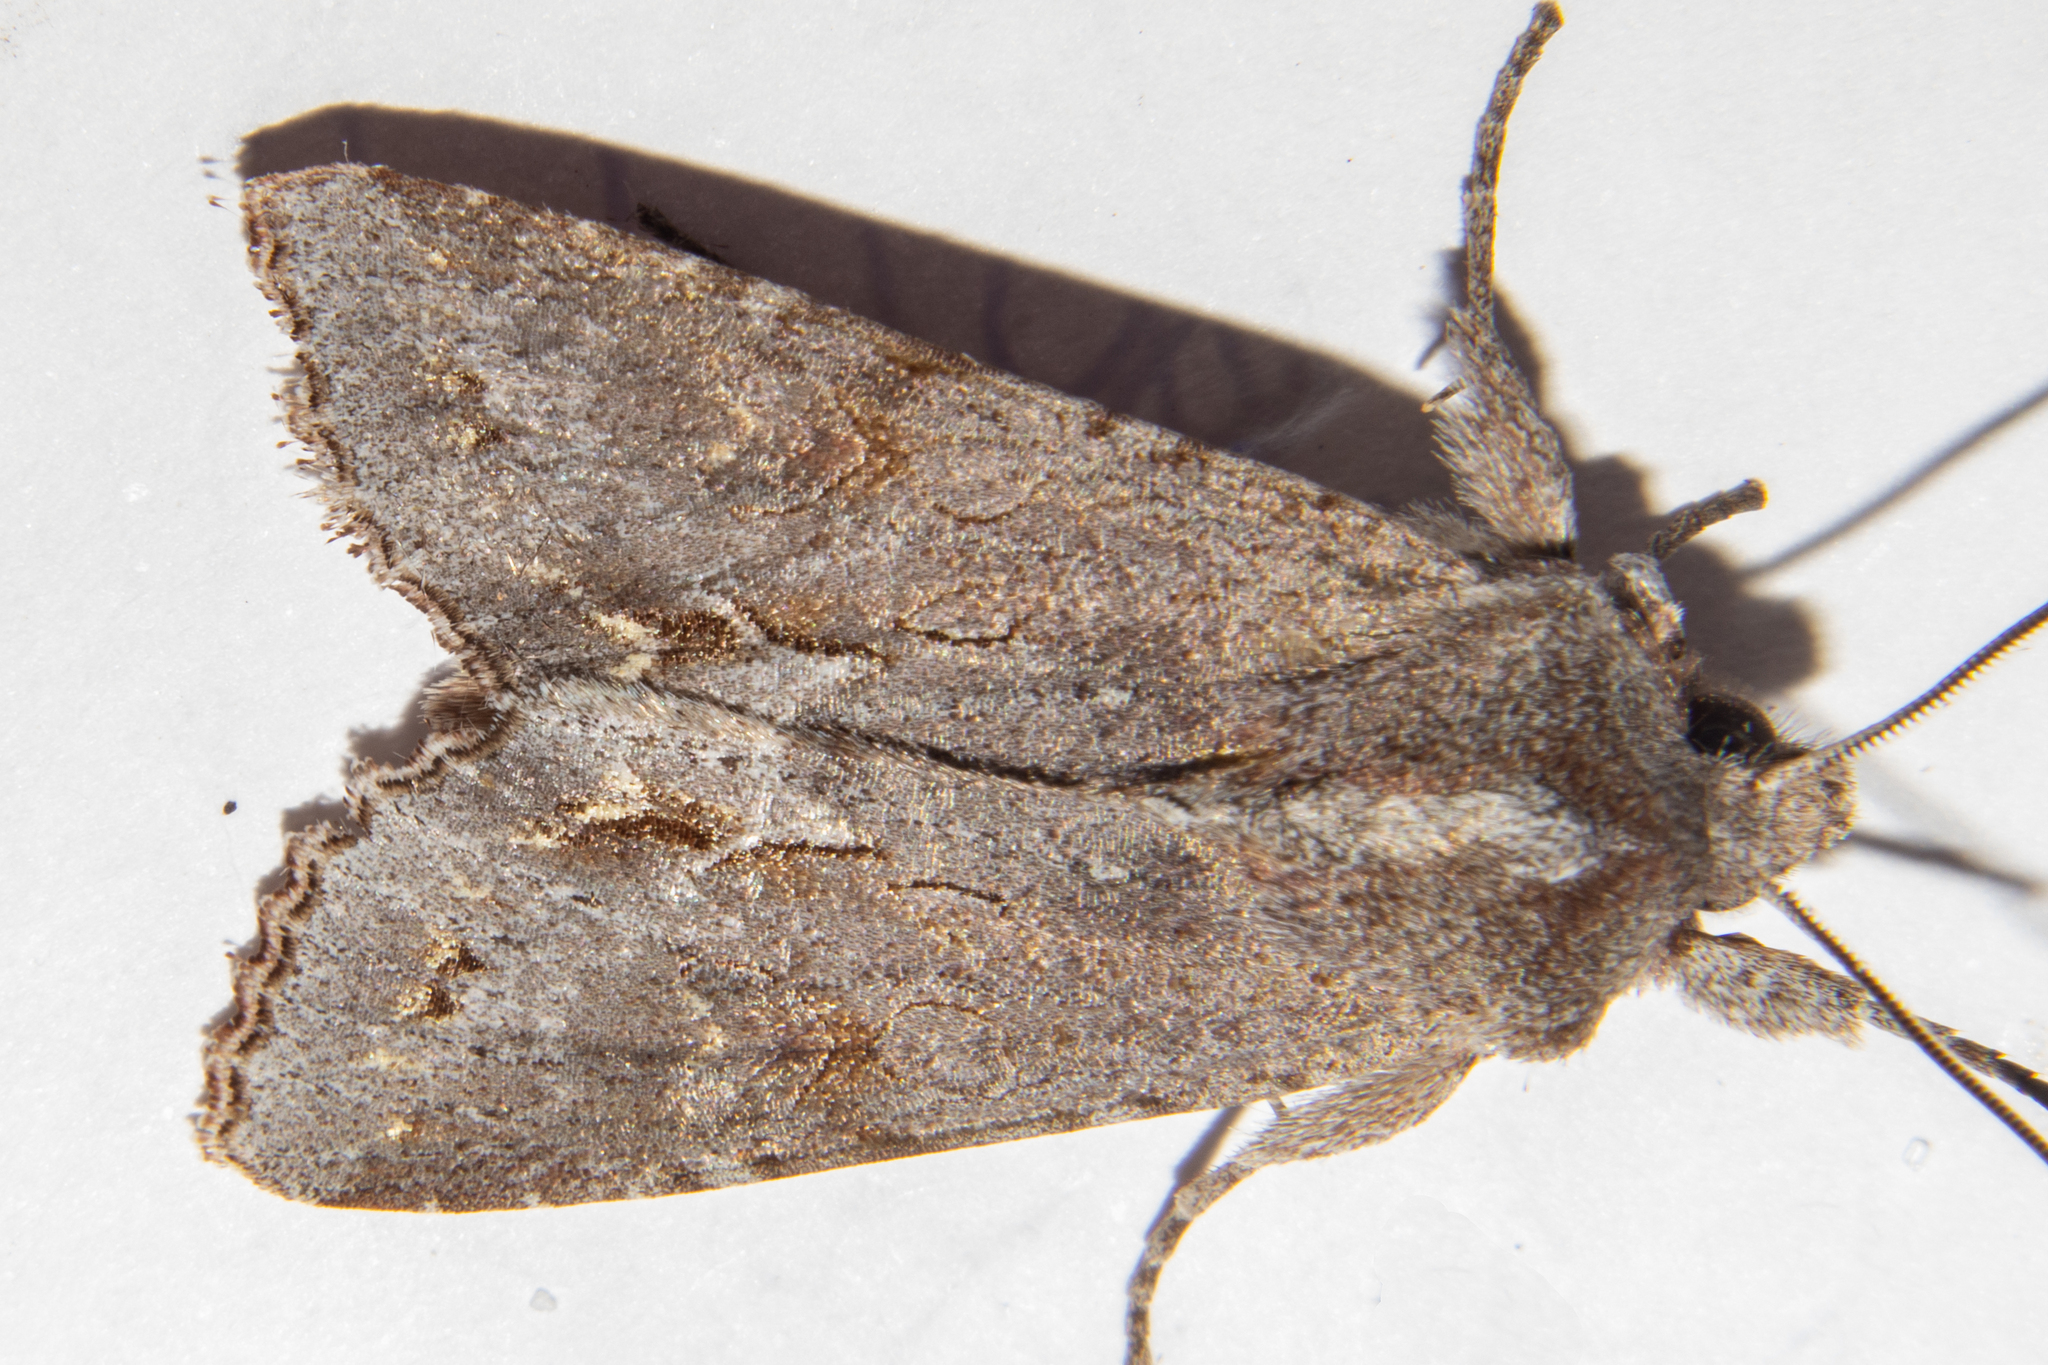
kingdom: Animalia
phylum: Arthropoda
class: Insecta
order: Lepidoptera
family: Noctuidae
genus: Ichneutica
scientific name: Ichneutica
